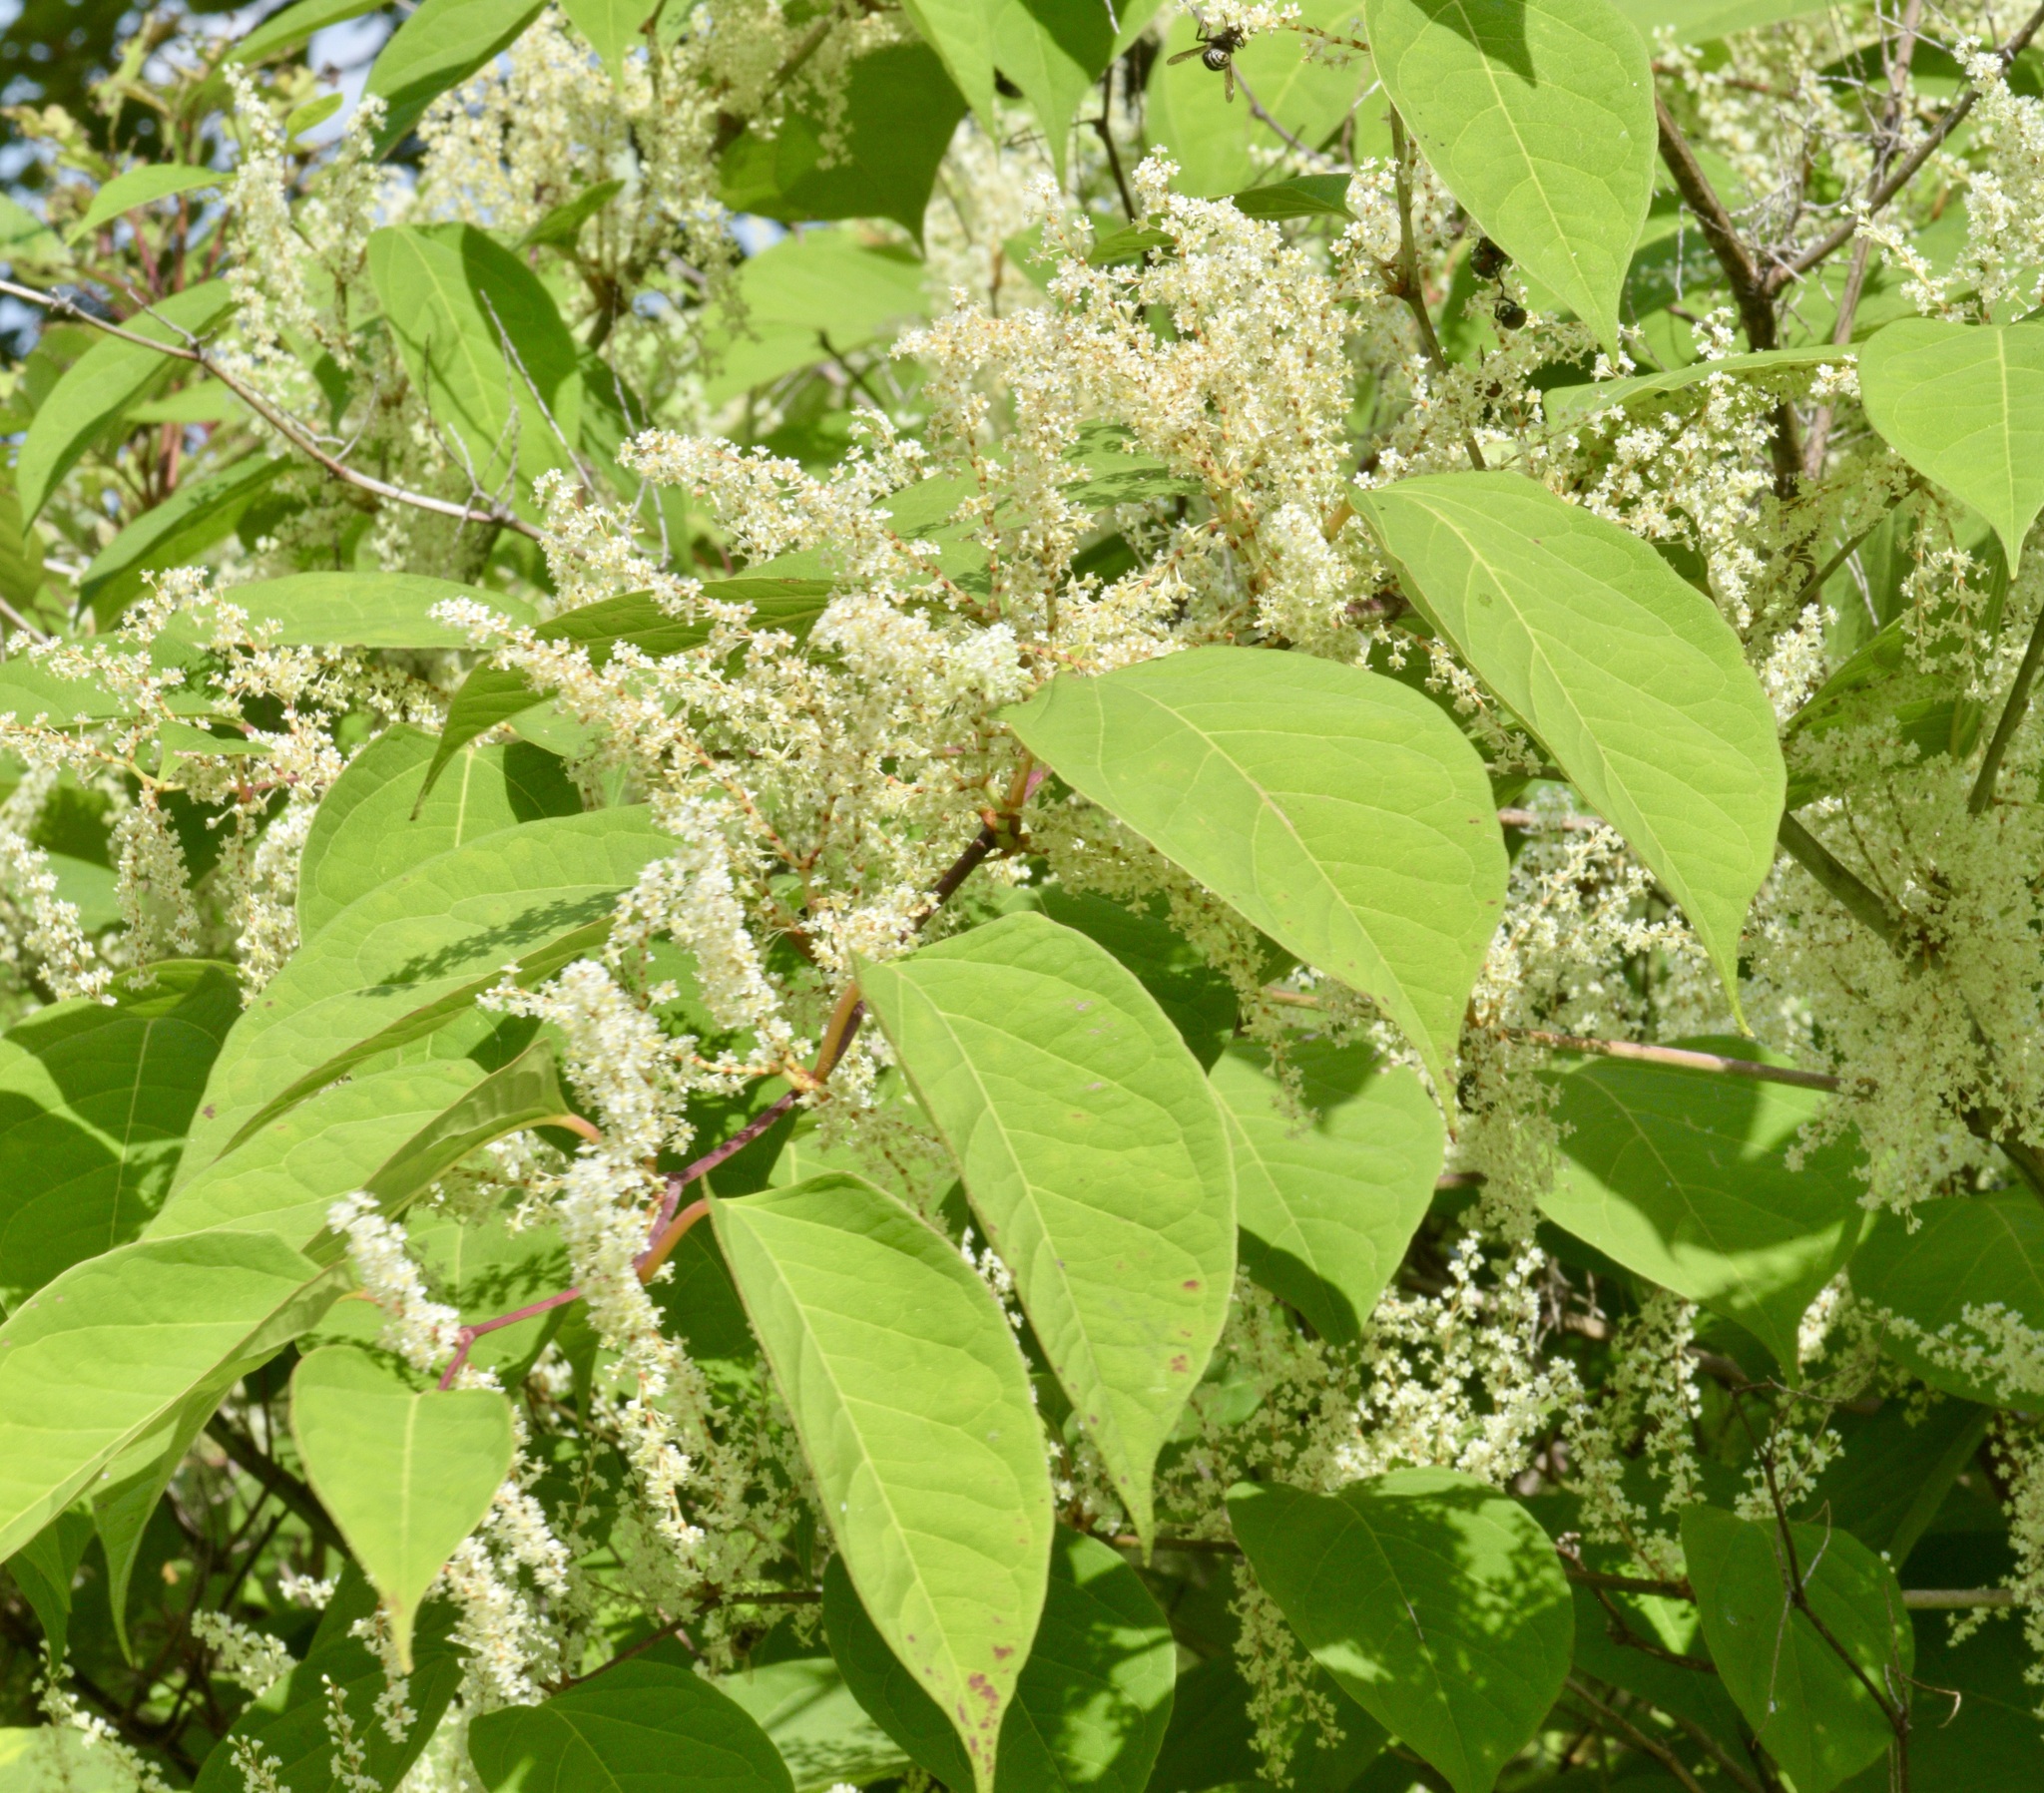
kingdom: Plantae
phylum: Tracheophyta
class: Magnoliopsida
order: Caryophyllales
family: Polygonaceae
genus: Reynoutria
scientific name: Reynoutria japonica
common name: Japanese knotweed
